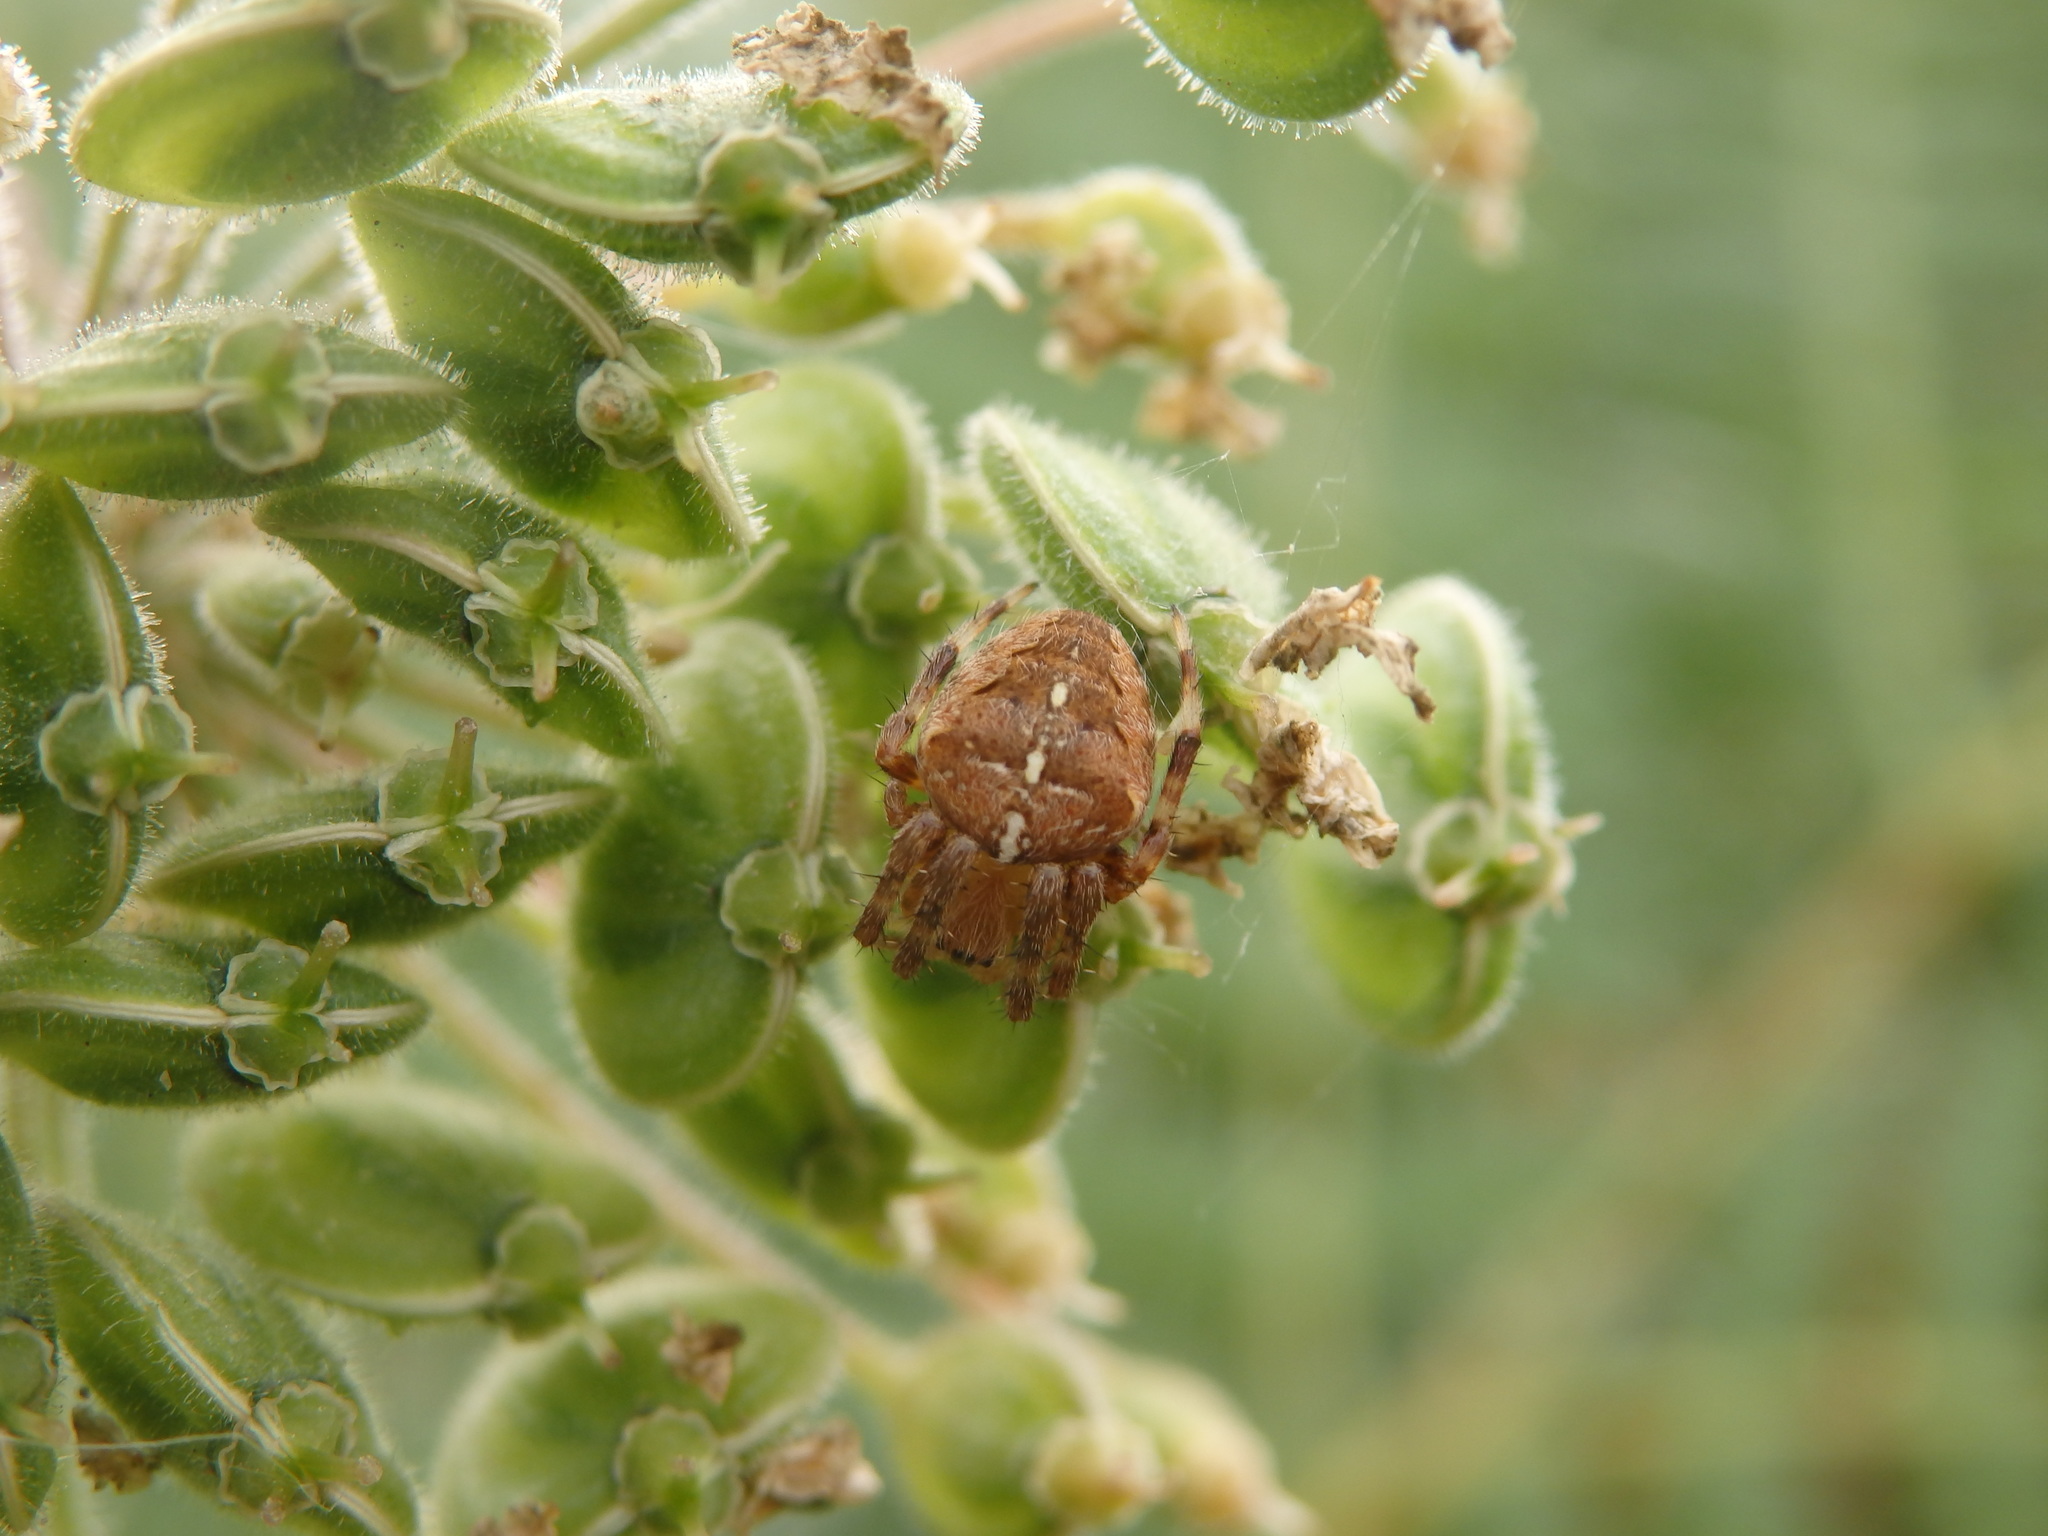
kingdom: Animalia
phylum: Arthropoda
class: Arachnida
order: Araneae
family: Araneidae
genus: Araneus
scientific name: Araneus diadematus
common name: Cross orbweaver
